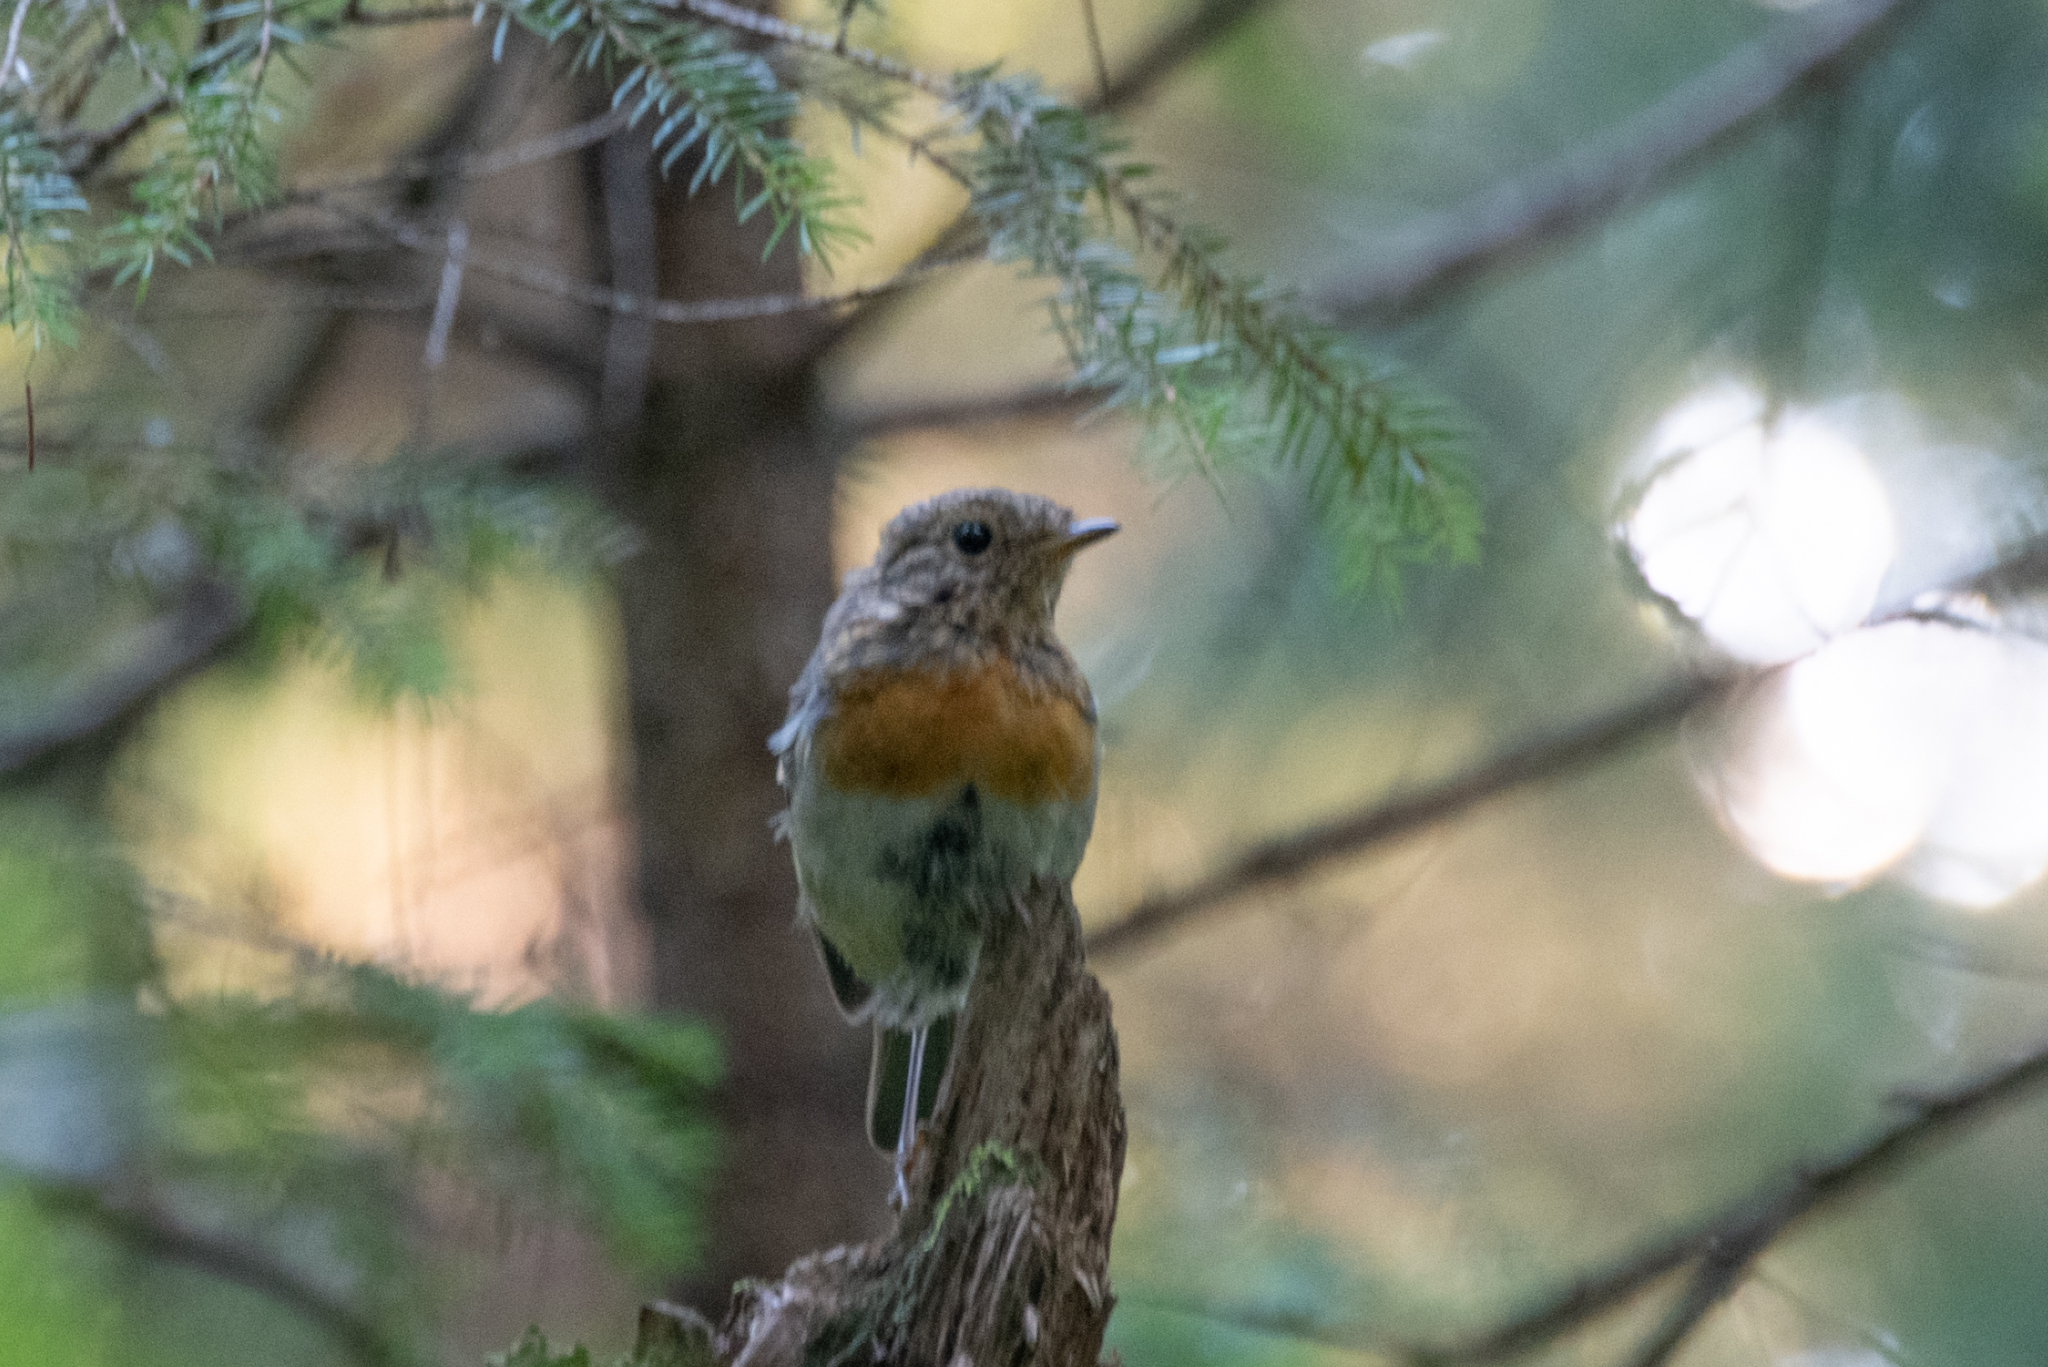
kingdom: Animalia
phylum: Chordata
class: Aves
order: Passeriformes
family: Muscicapidae
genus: Erithacus
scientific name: Erithacus rubecula
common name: European robin
